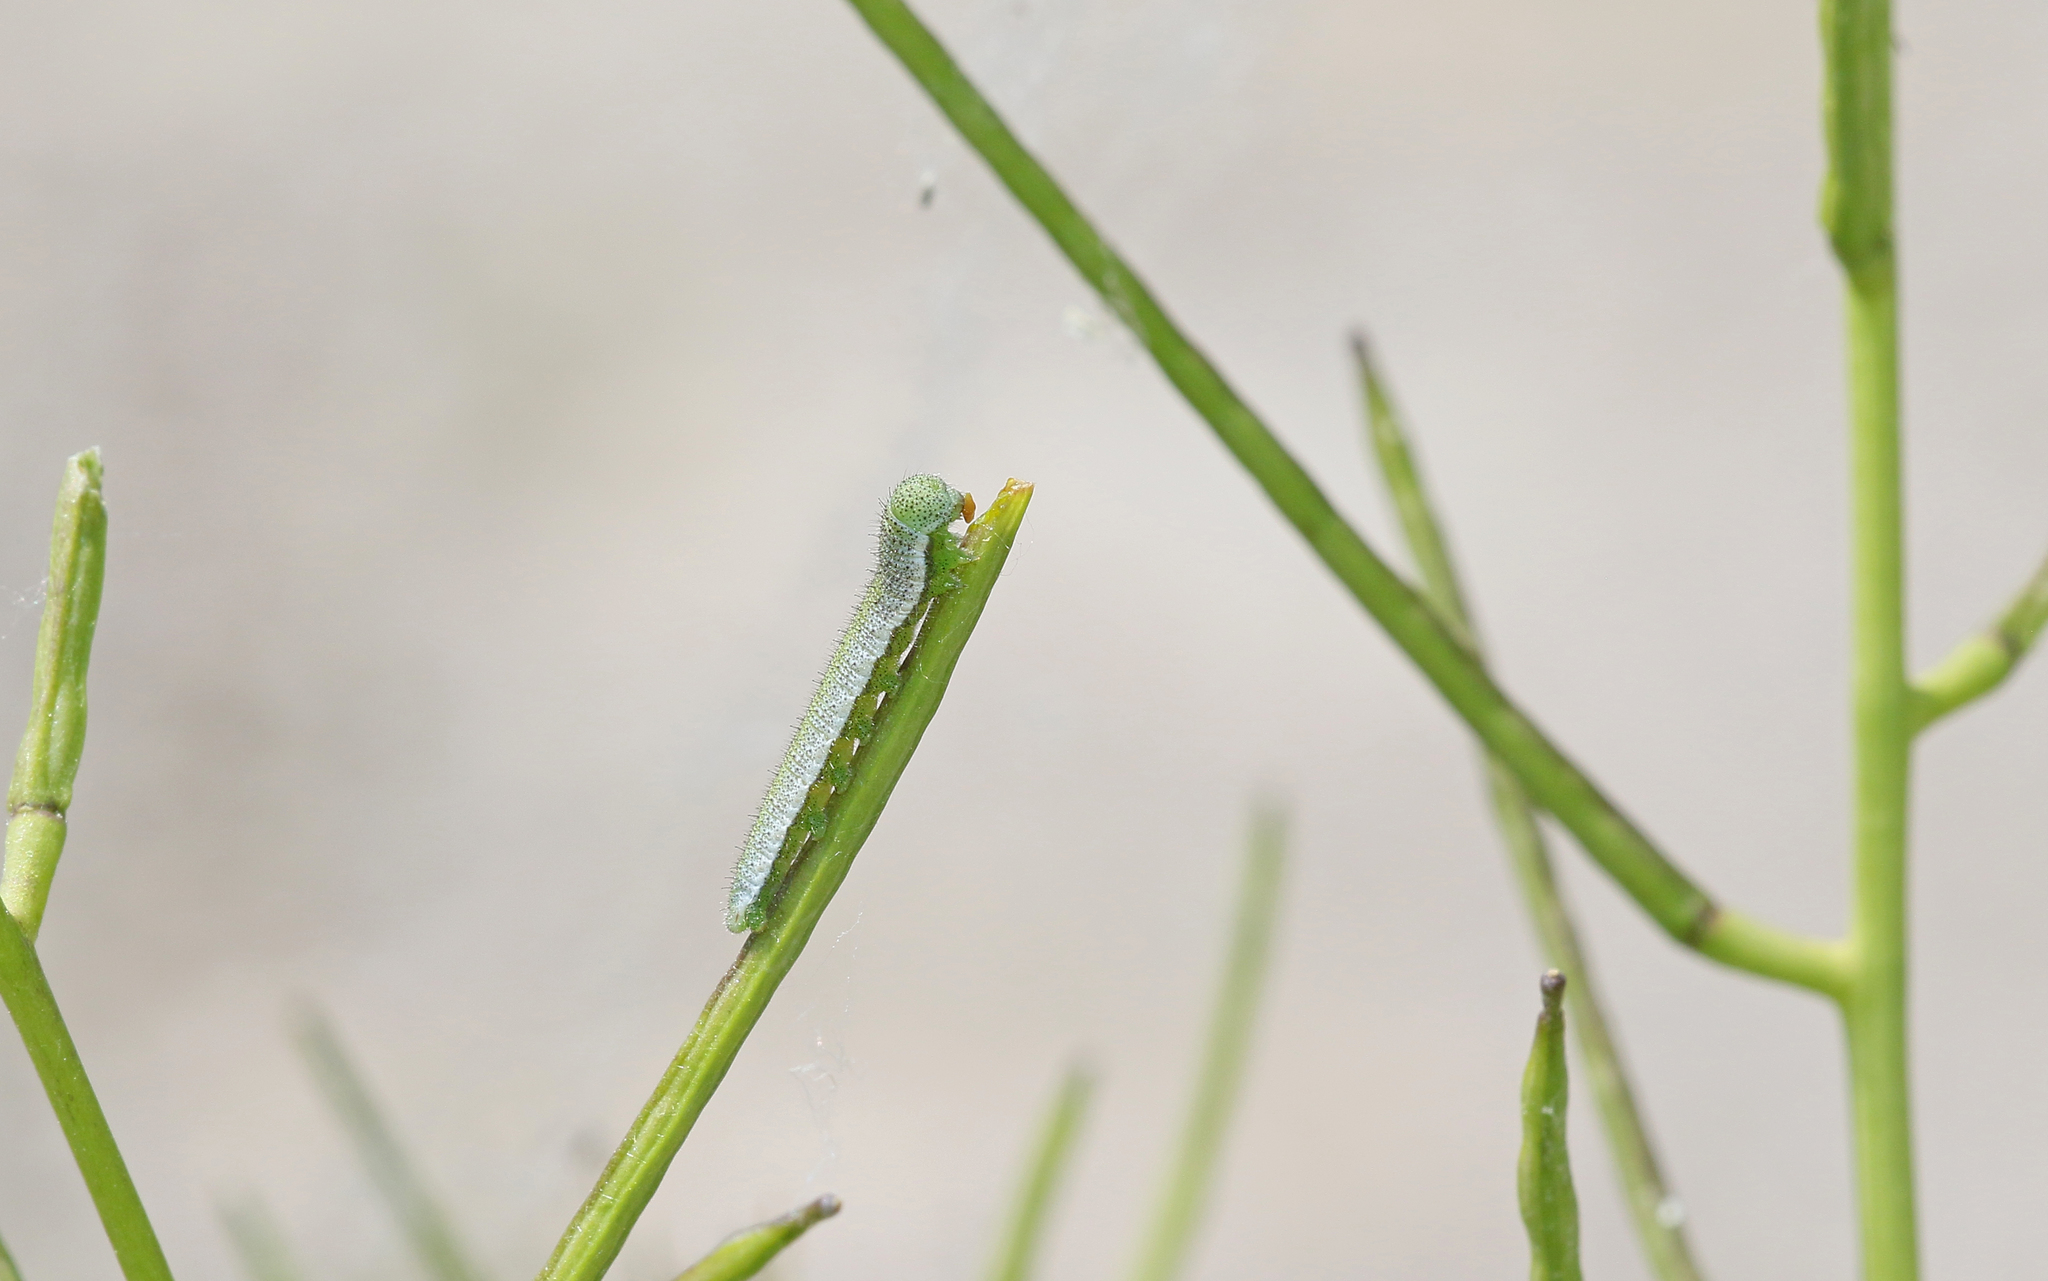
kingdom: Animalia
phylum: Arthropoda
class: Insecta
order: Lepidoptera
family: Pieridae
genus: Anthocharis
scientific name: Anthocharis cardamines
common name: Orange-tip
